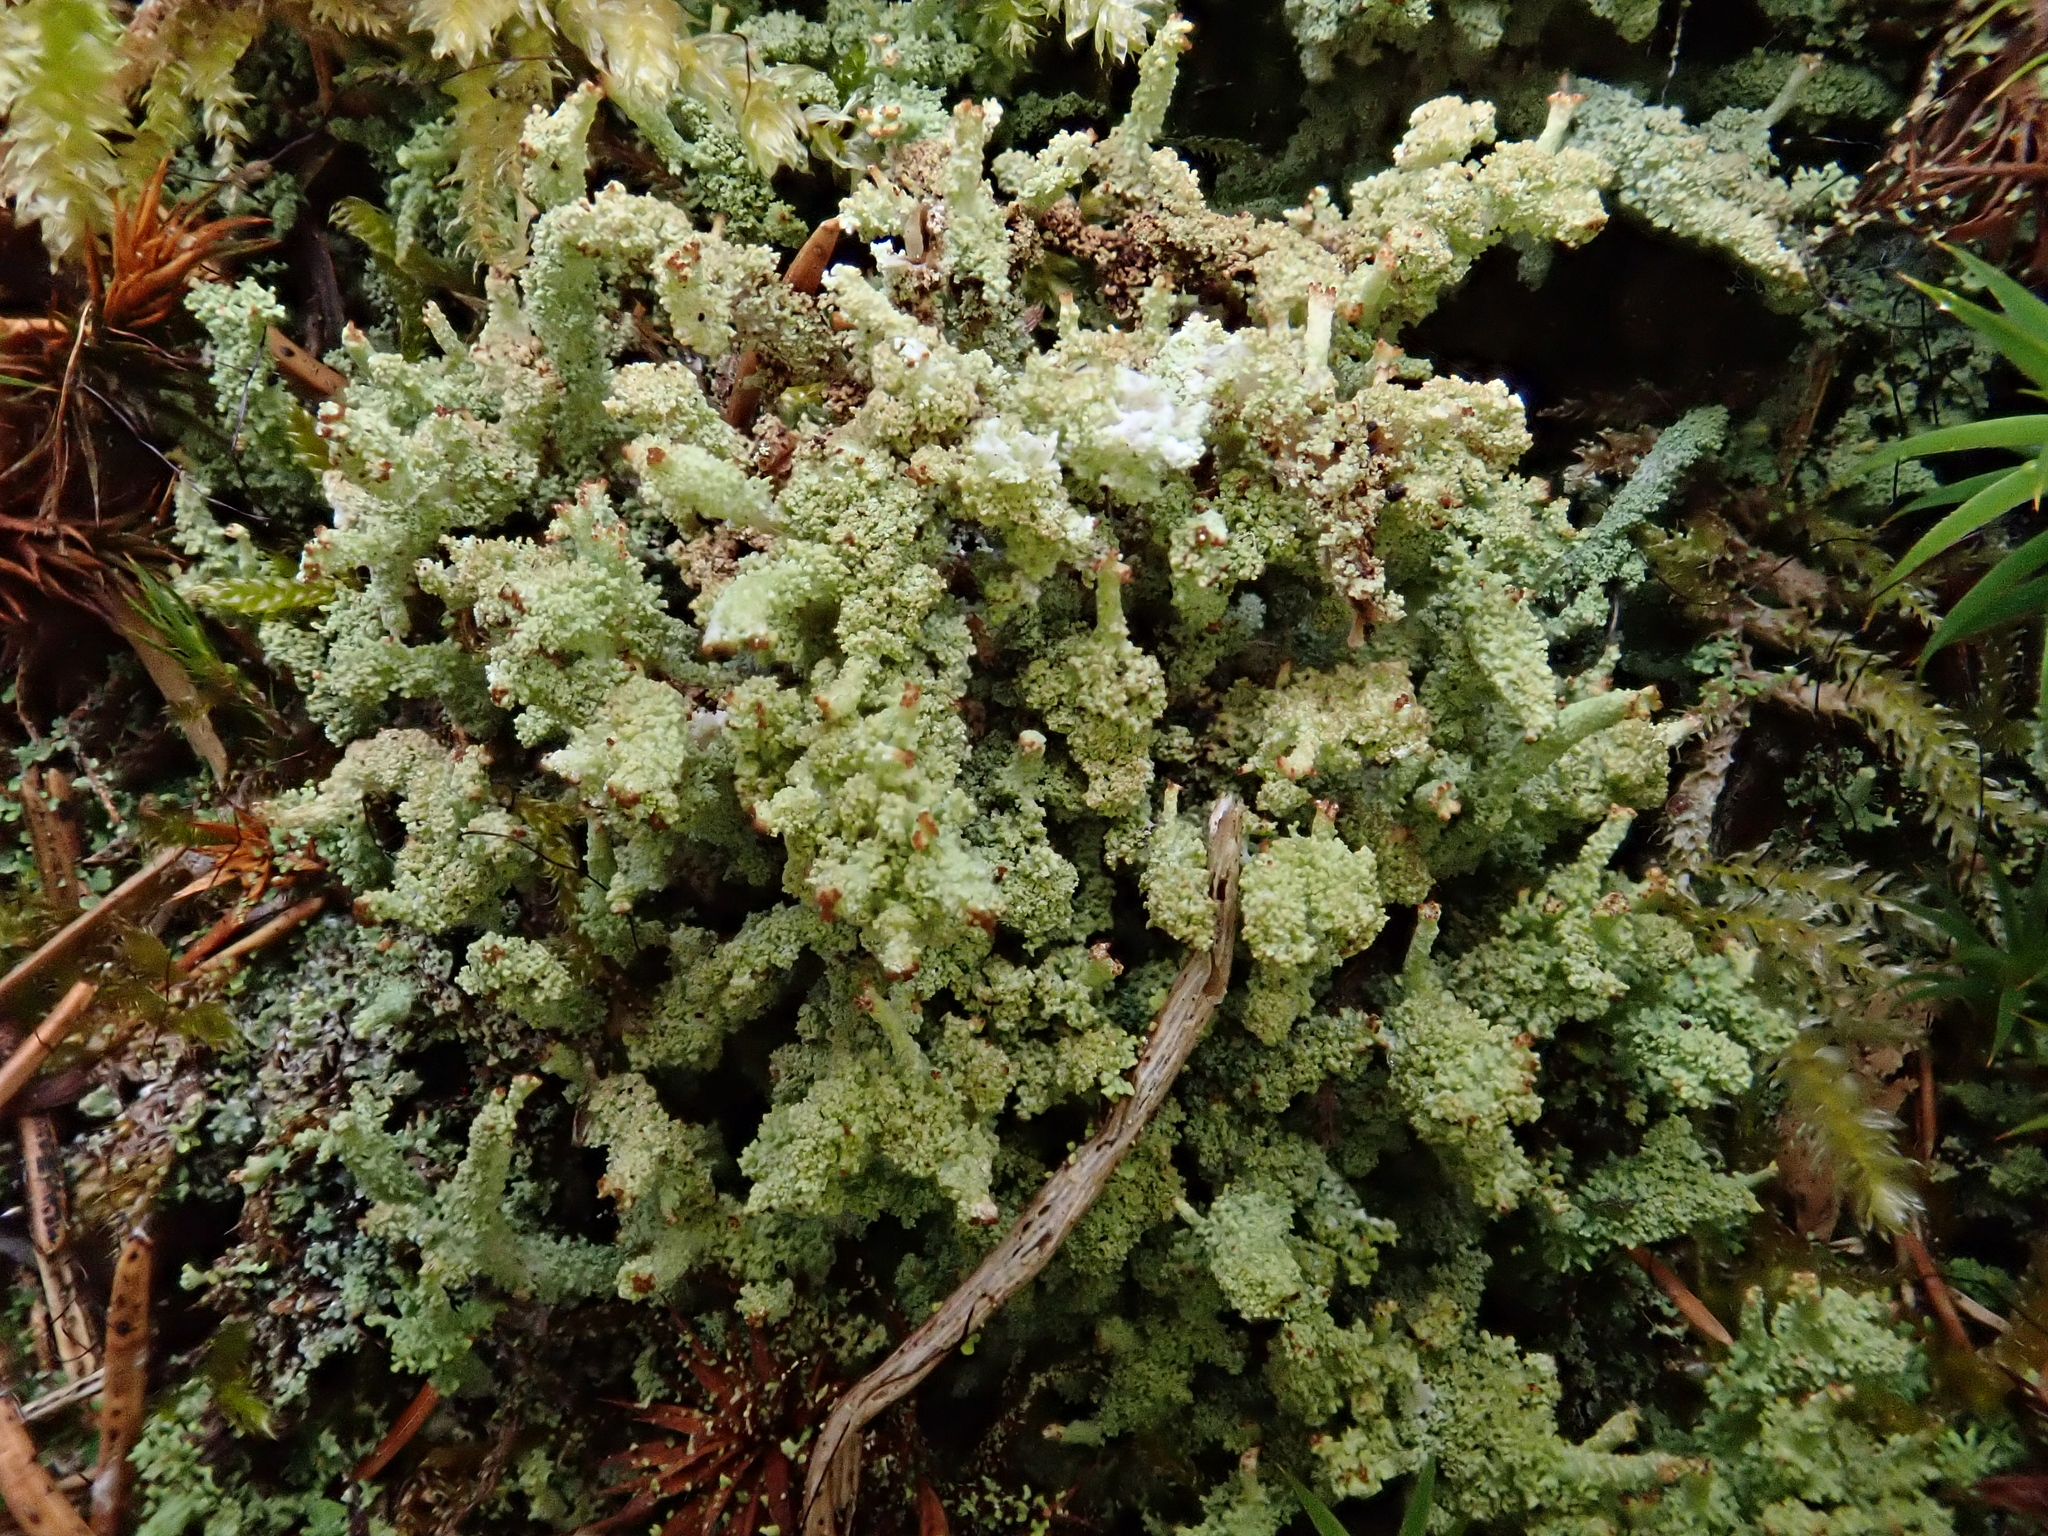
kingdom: Fungi
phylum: Ascomycota
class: Lecanoromycetes
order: Lecanorales
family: Cladoniaceae
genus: Cladonia
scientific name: Cladonia squamosa
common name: Dragon horn
